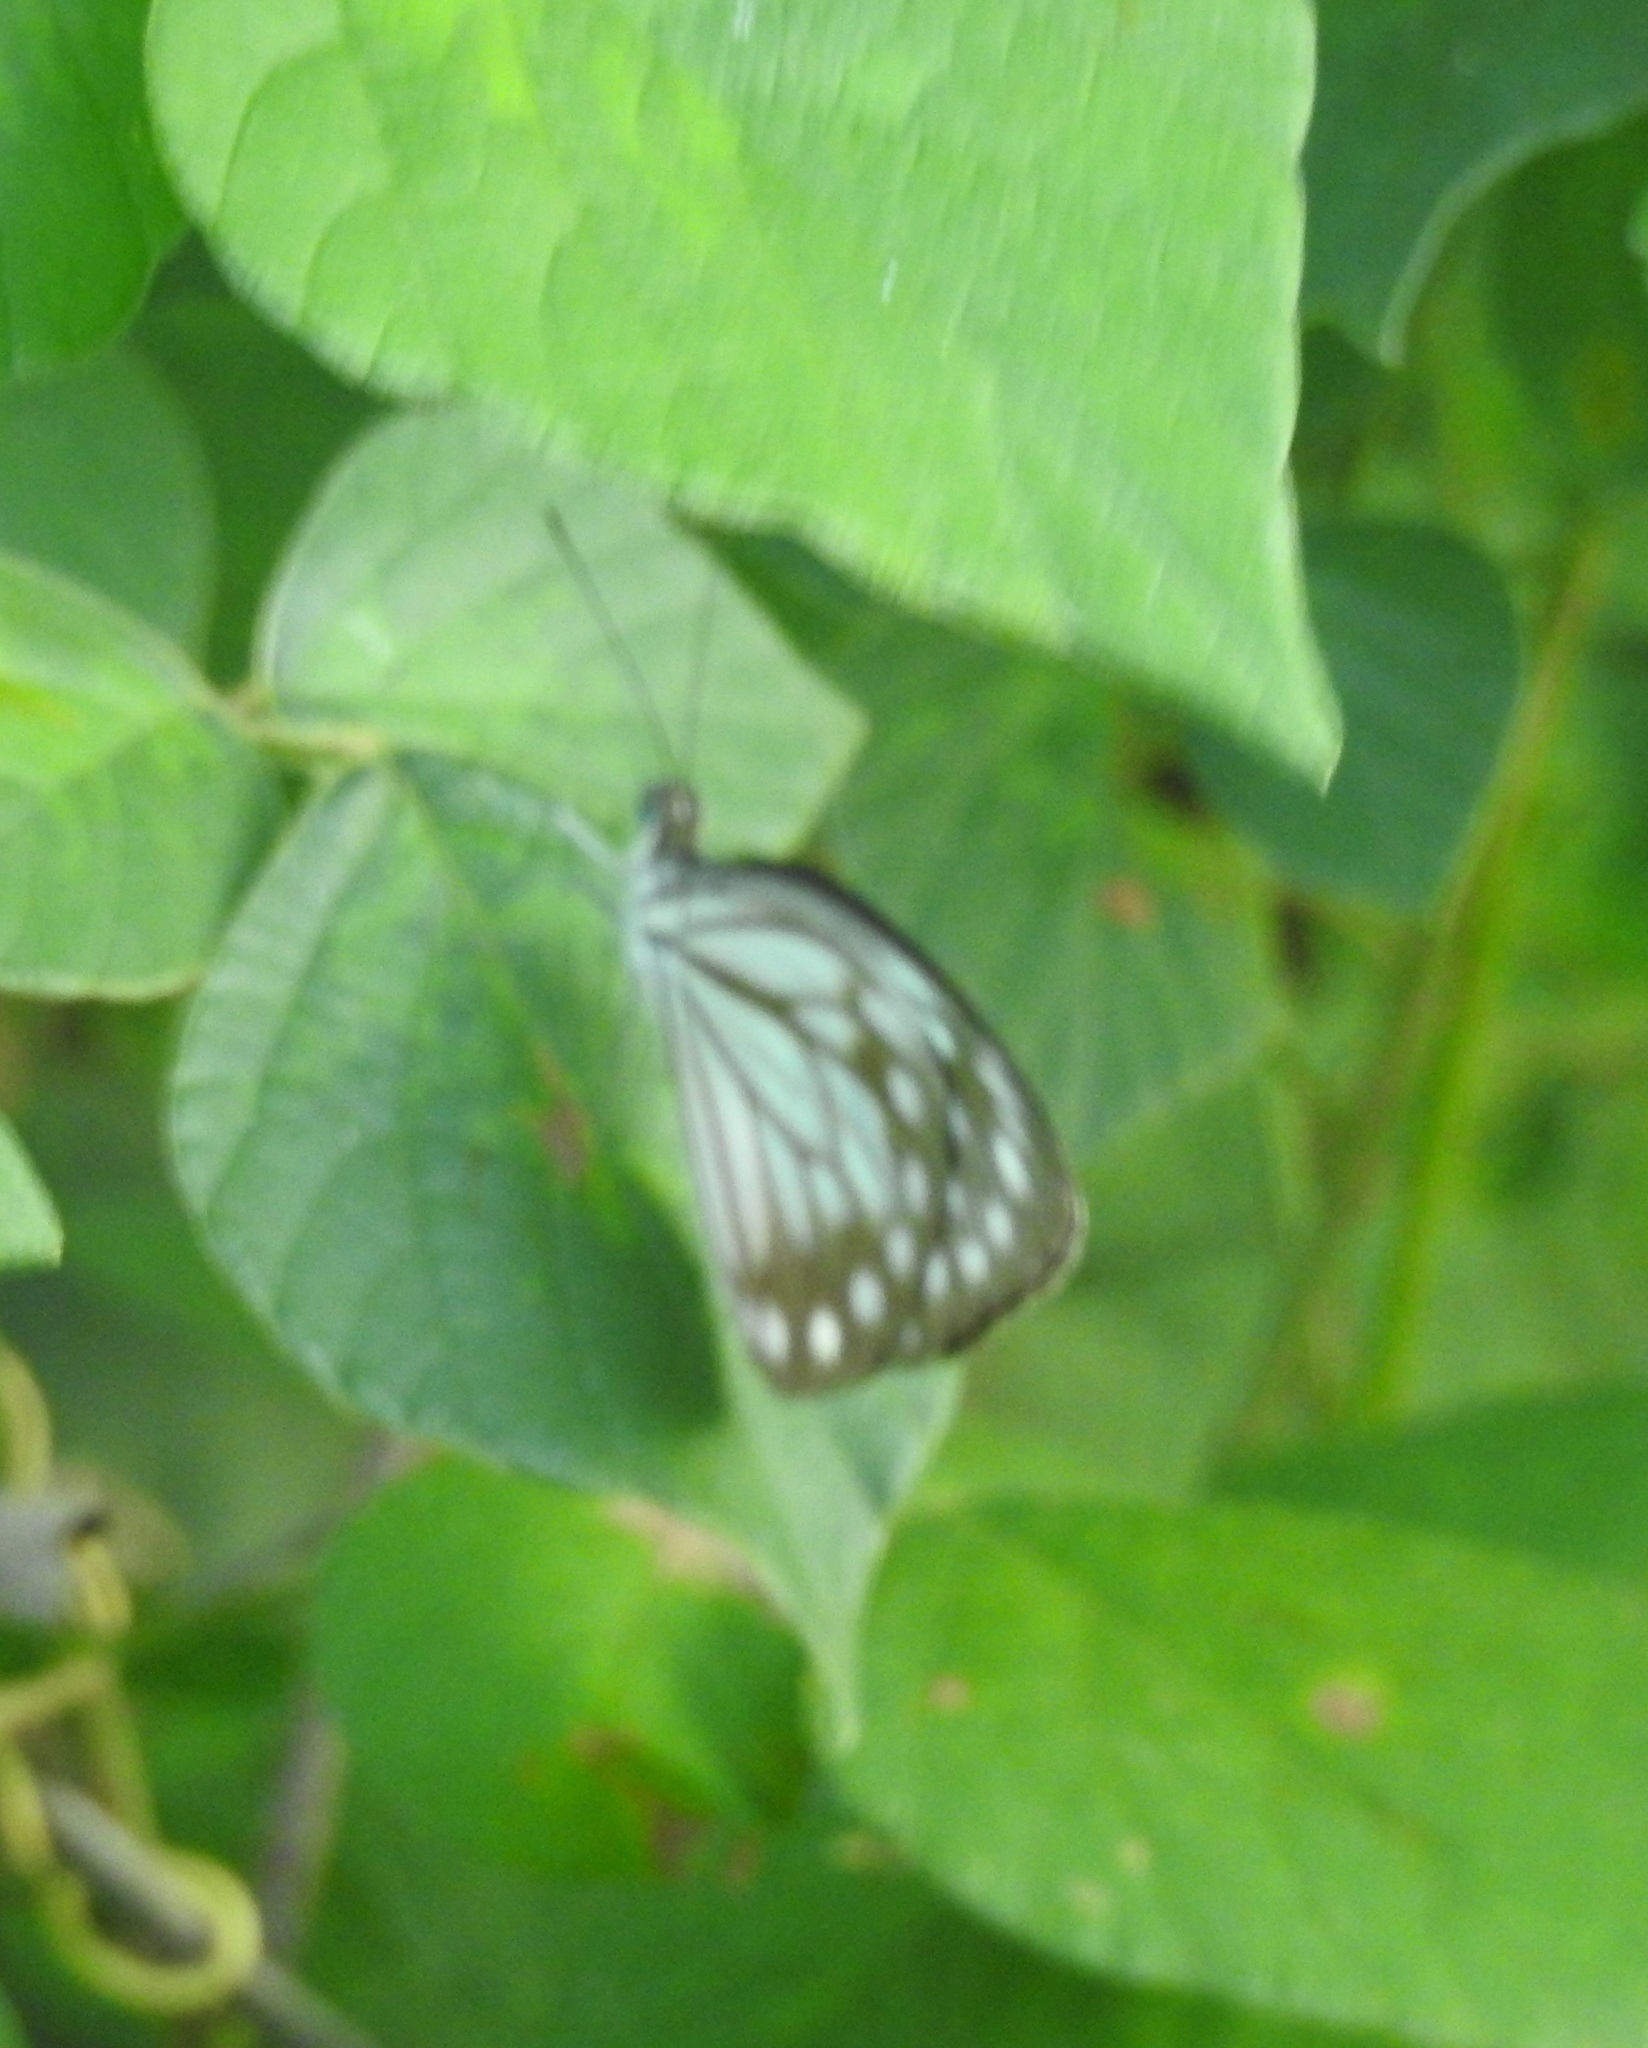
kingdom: Animalia
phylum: Arthropoda
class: Insecta
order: Lepidoptera
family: Pieridae
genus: Pareronia
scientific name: Pareronia hippia
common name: Indian wanderer
